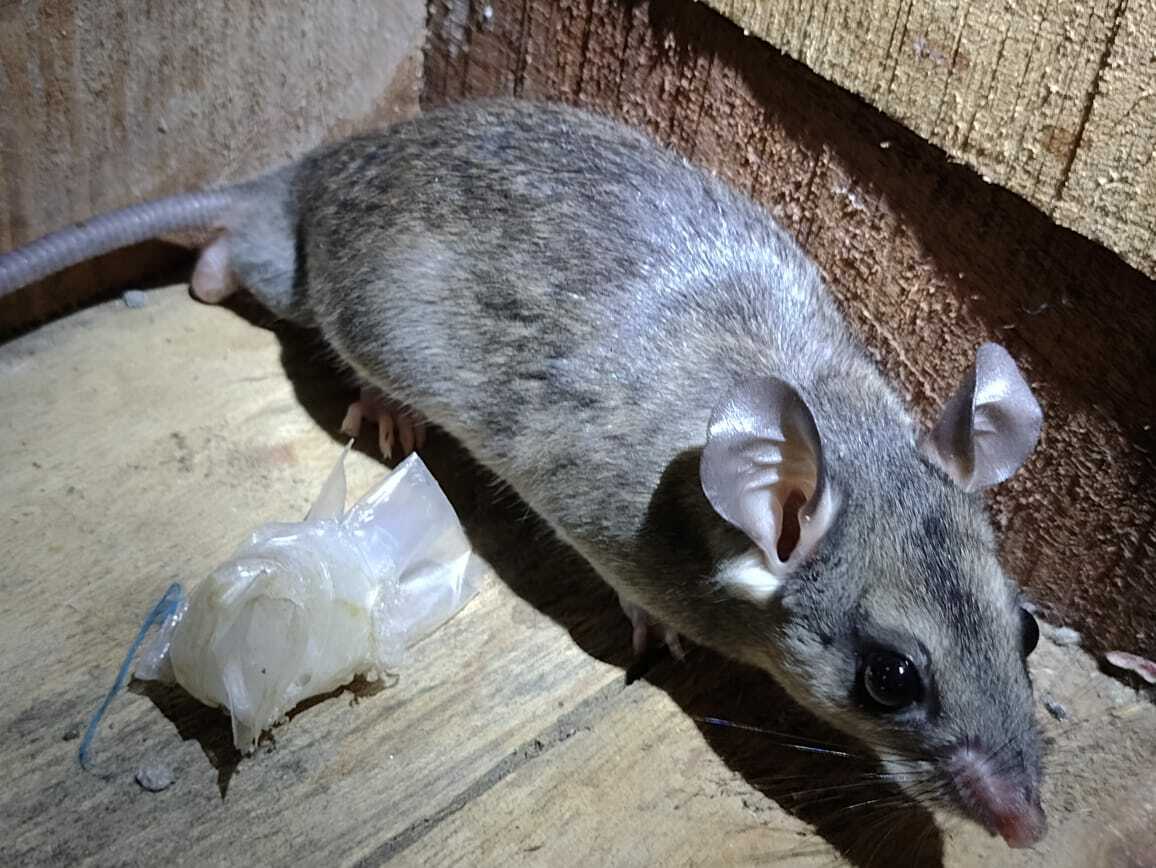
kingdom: Animalia
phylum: Chordata
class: Mammalia
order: Rodentia
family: Cricetidae
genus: Ototylomys
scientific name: Ototylomys phyllotis
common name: Big-eared climbing rat
